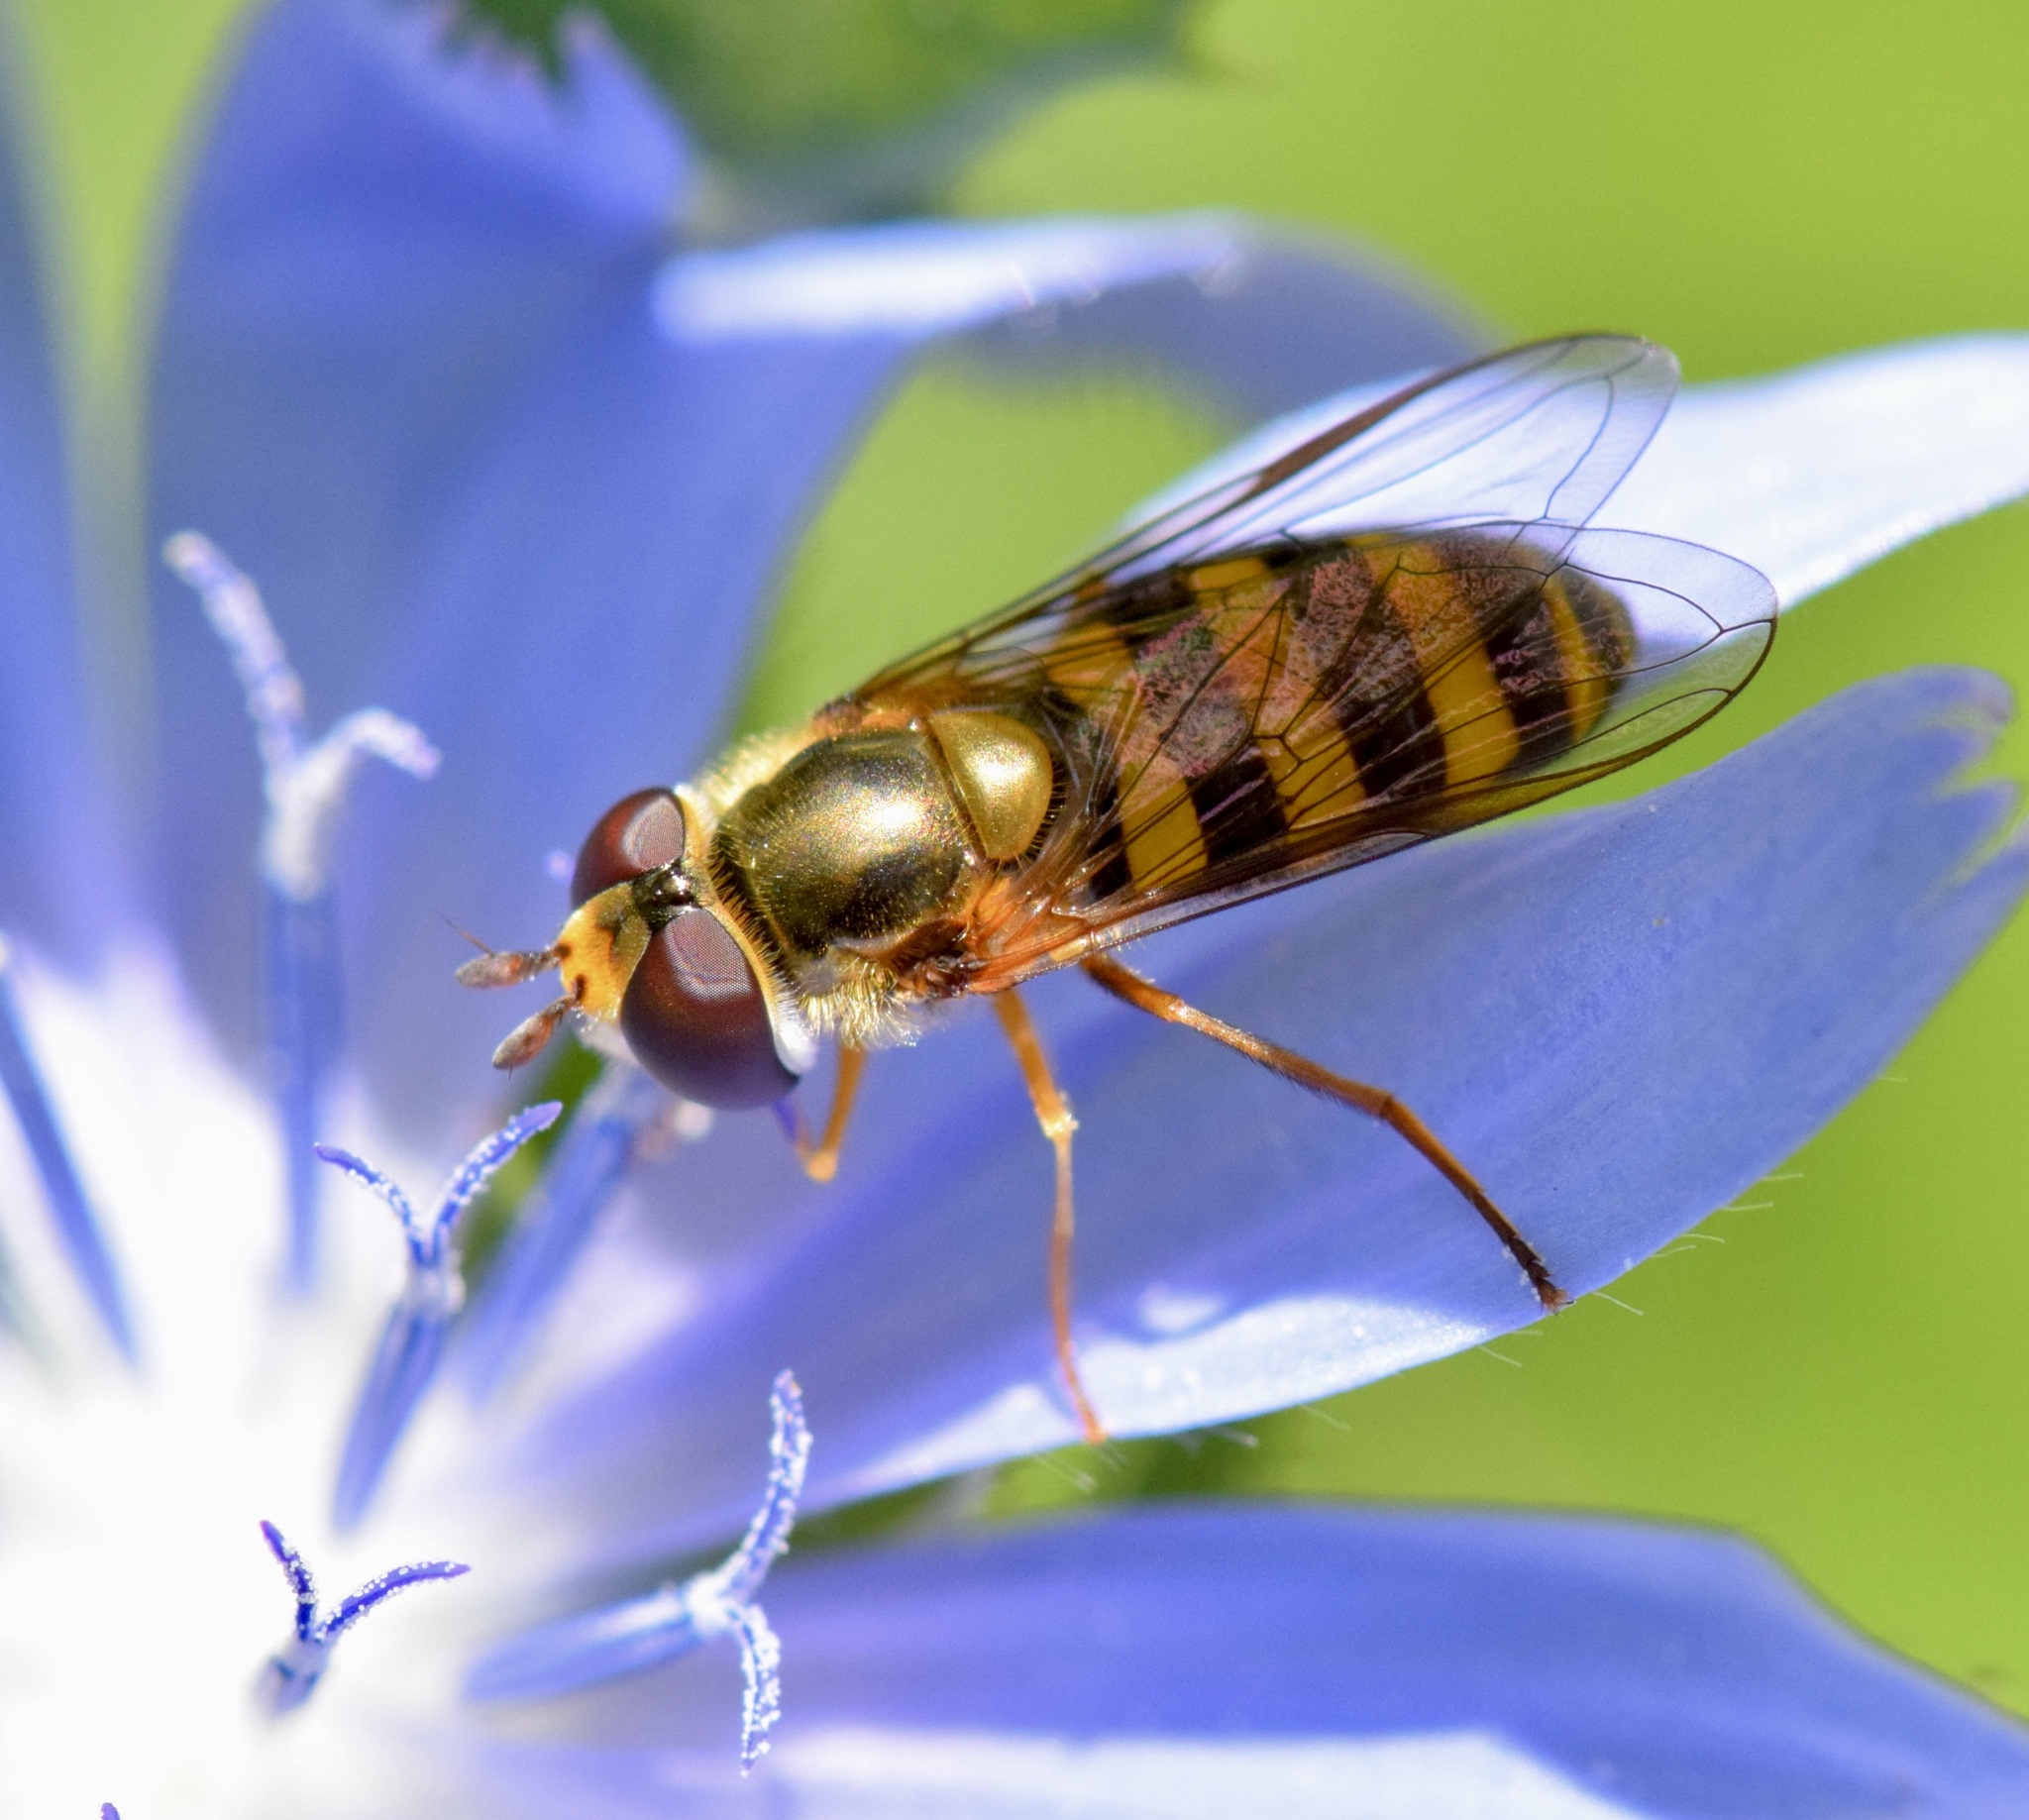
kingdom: Animalia
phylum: Arthropoda
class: Insecta
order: Diptera
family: Syrphidae
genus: Eupeodes
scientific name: Eupeodes
